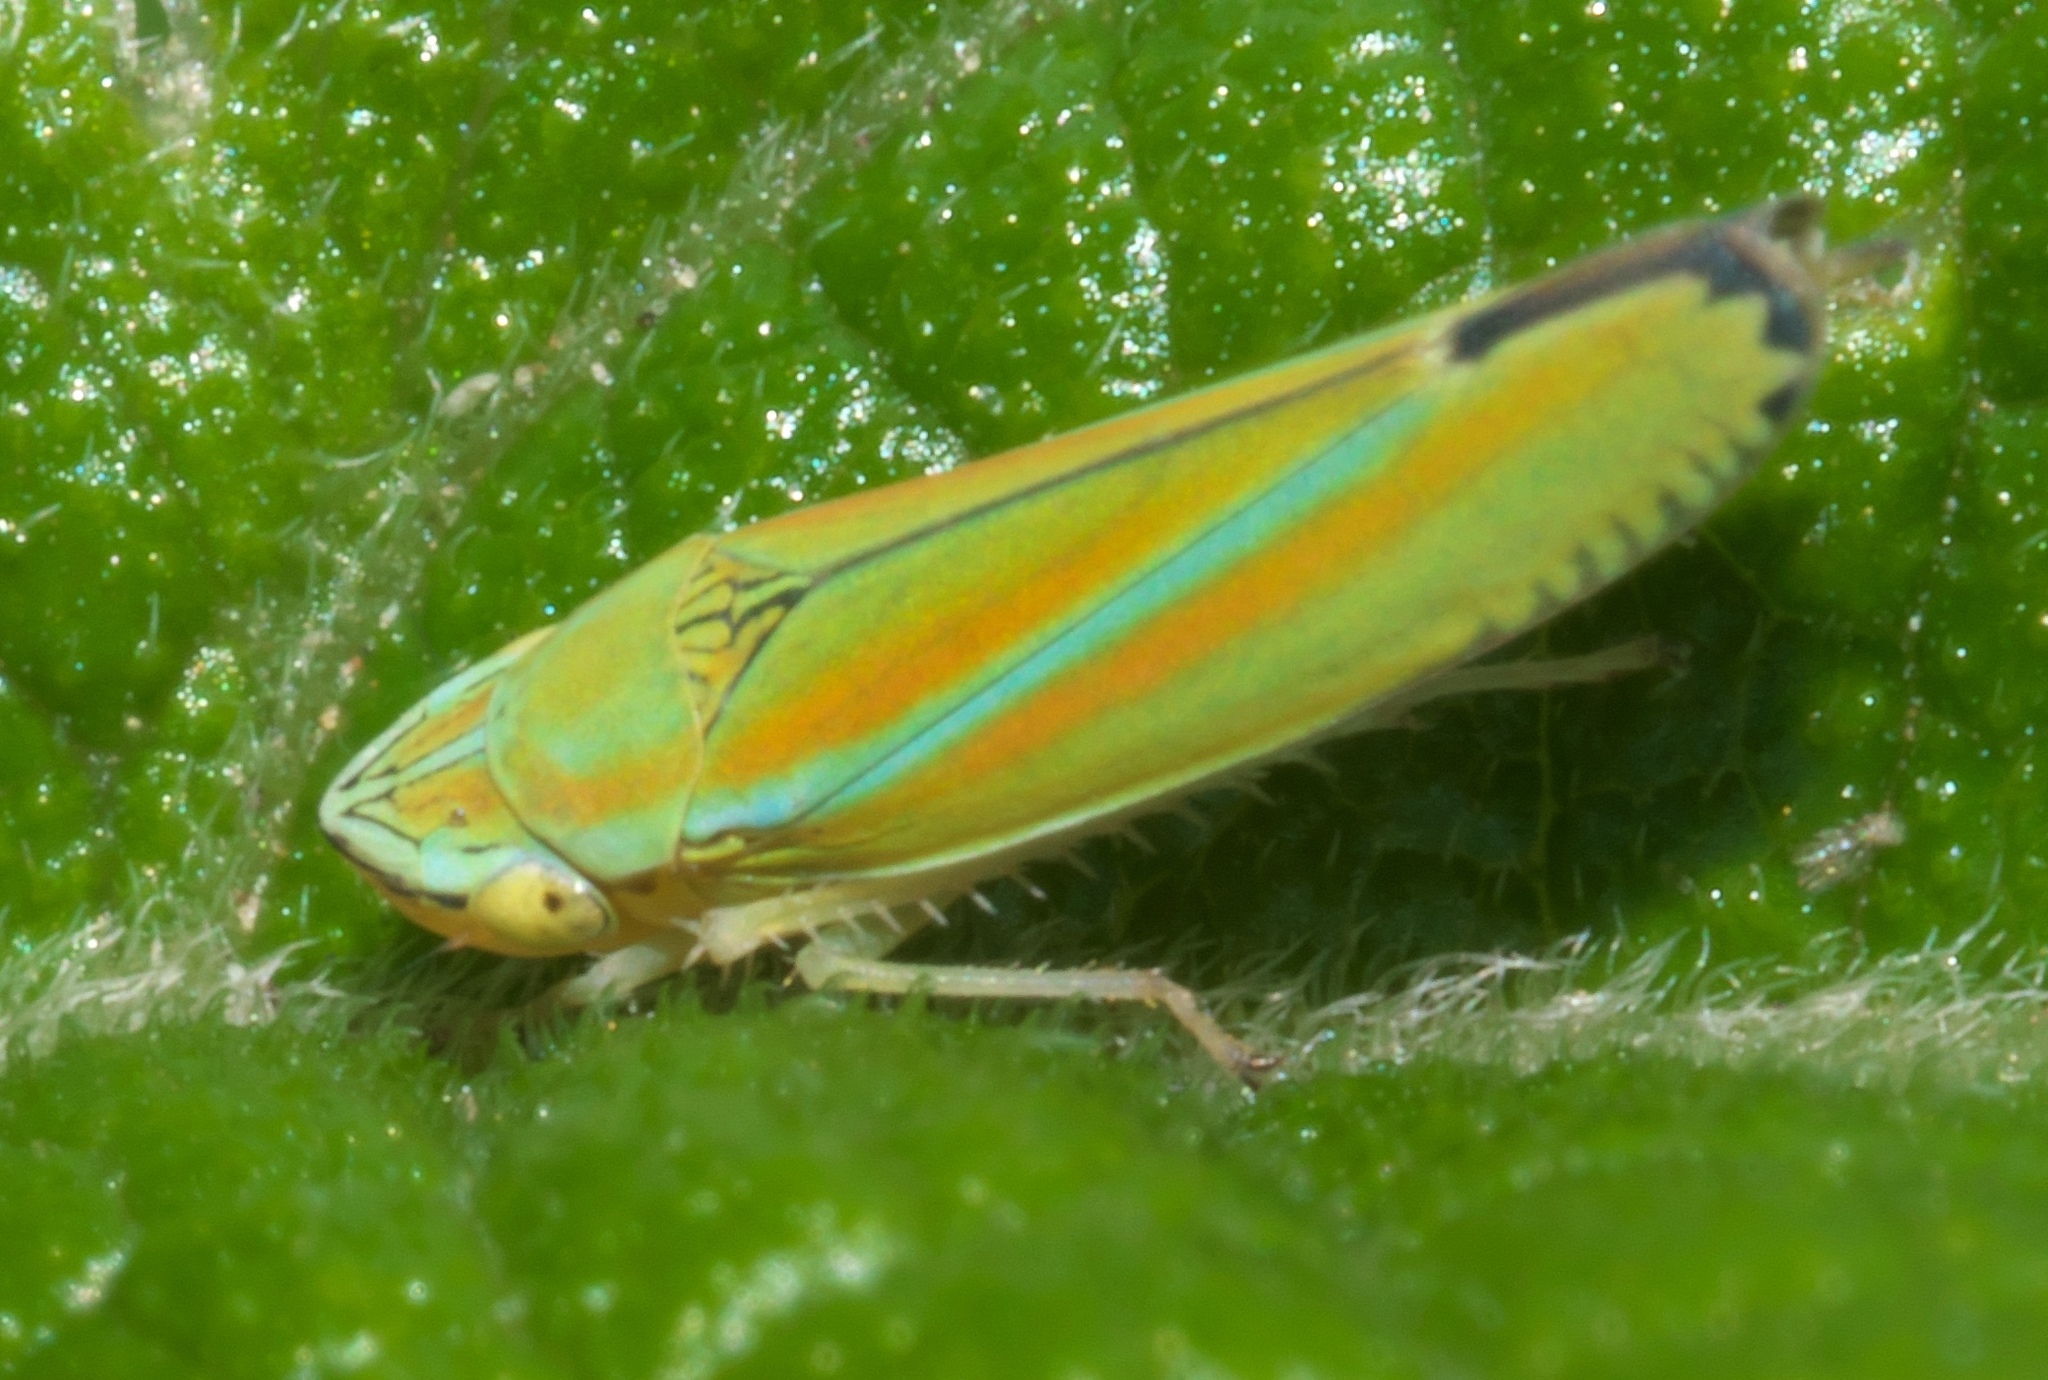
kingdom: Animalia
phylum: Arthropoda
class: Insecta
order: Hemiptera
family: Cicadellidae
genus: Graphocephala
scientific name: Graphocephala versuta
